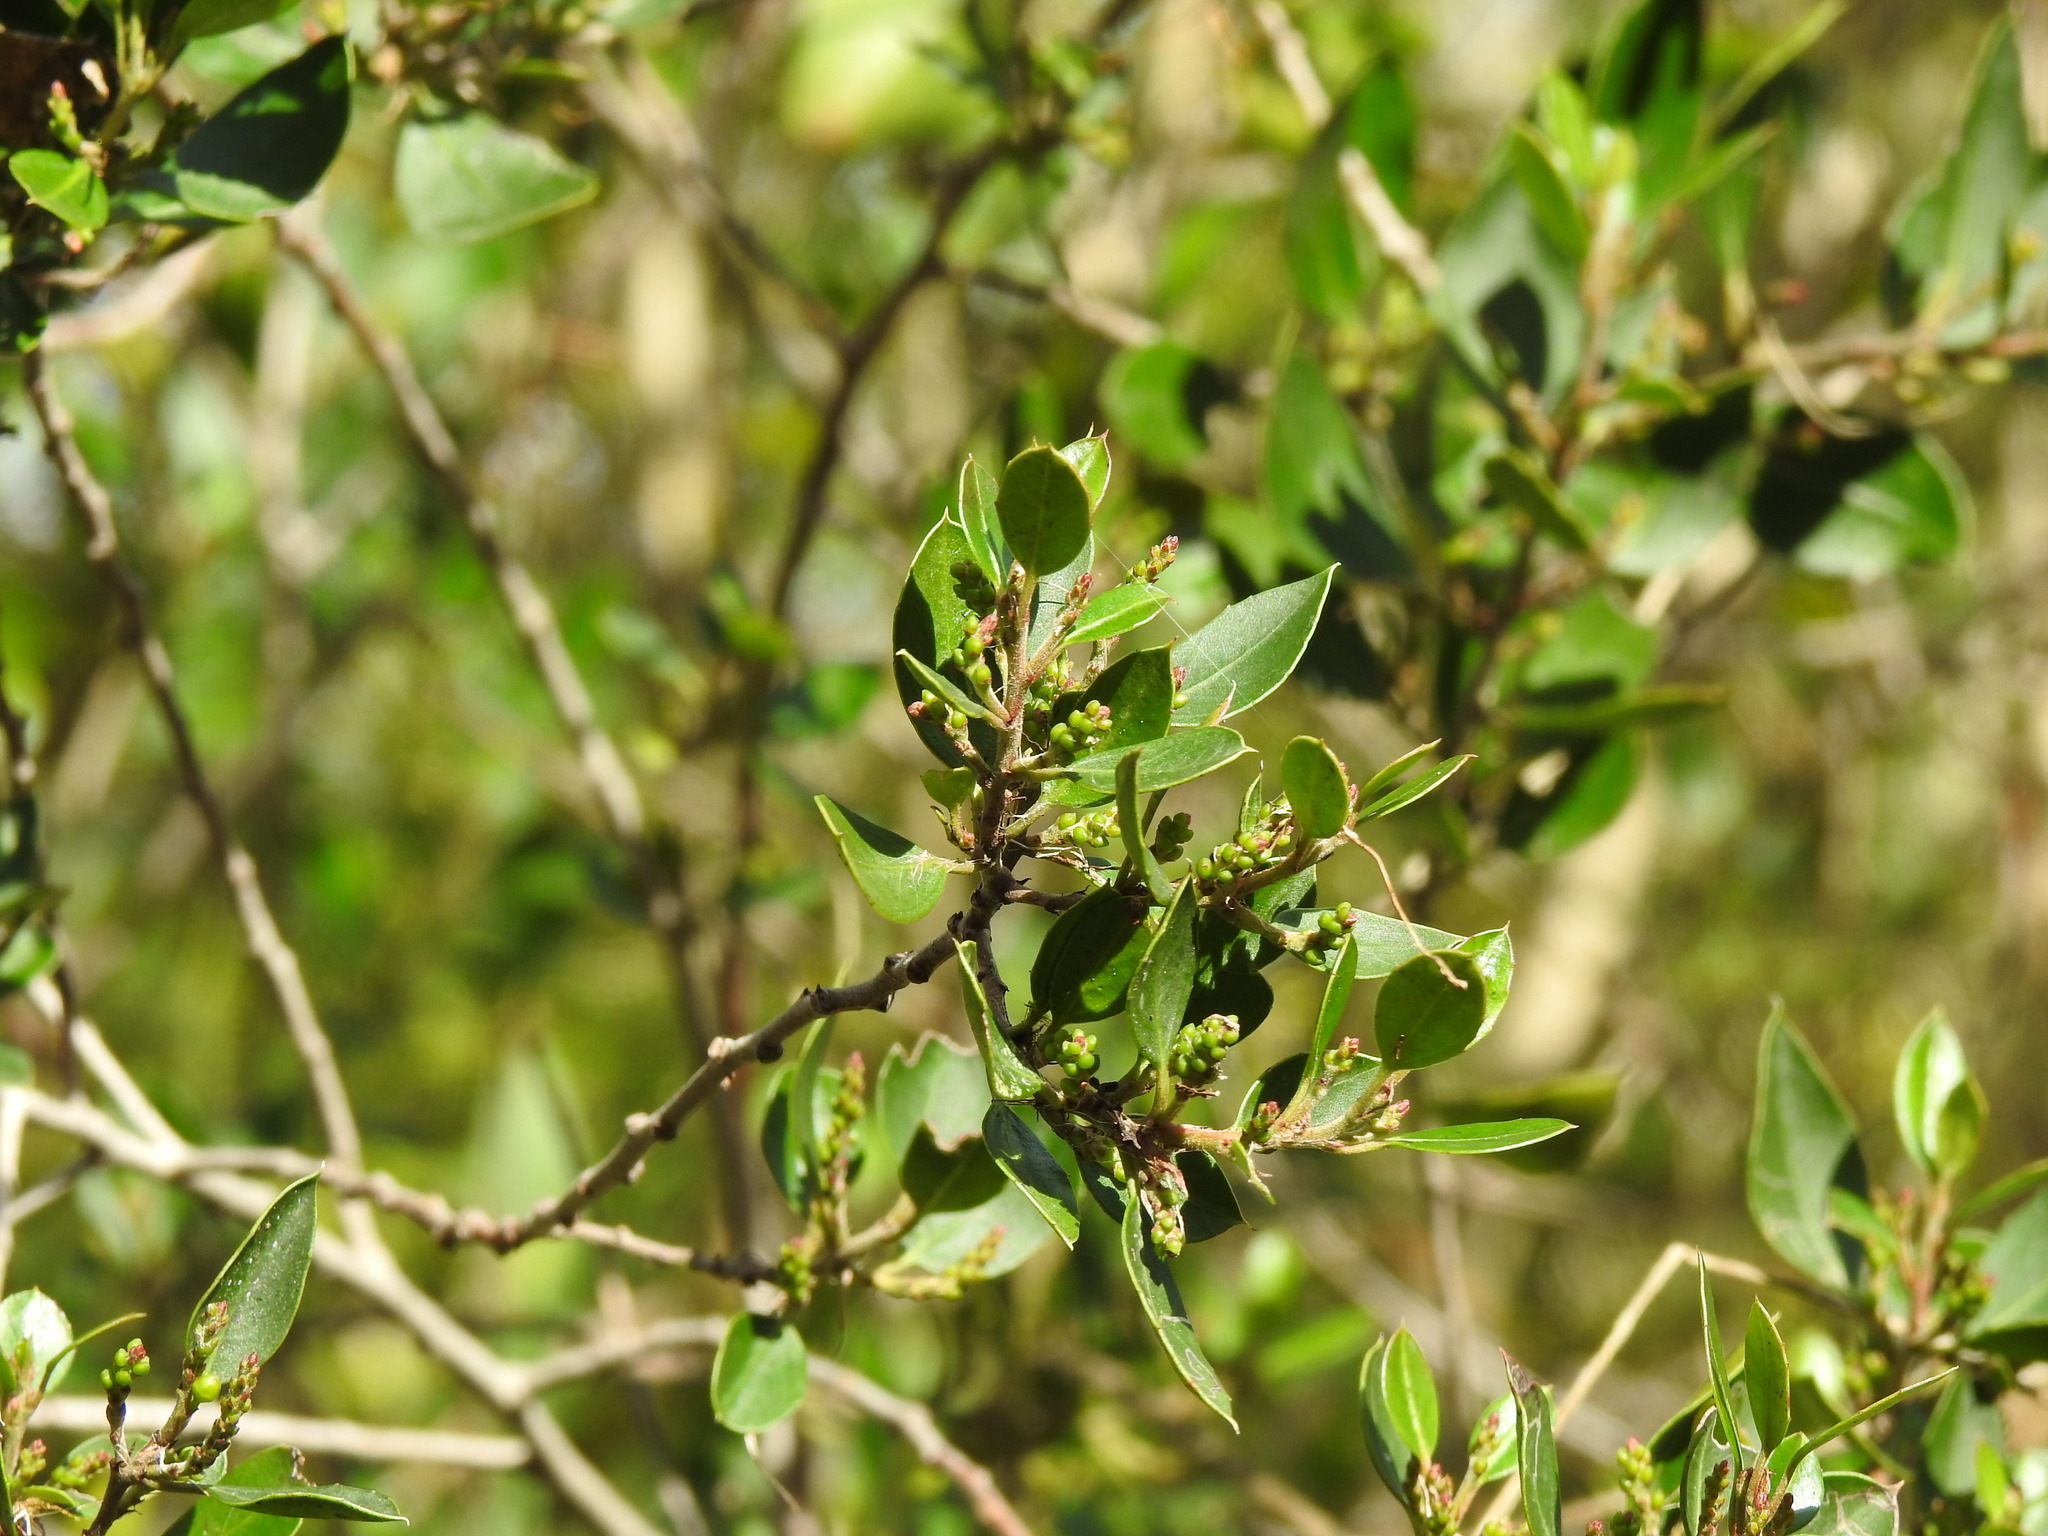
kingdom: Plantae
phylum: Tracheophyta
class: Magnoliopsida
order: Rosales
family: Rhamnaceae
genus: Rhamnus
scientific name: Rhamnus alaternus
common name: Mediterranean buckthorn
